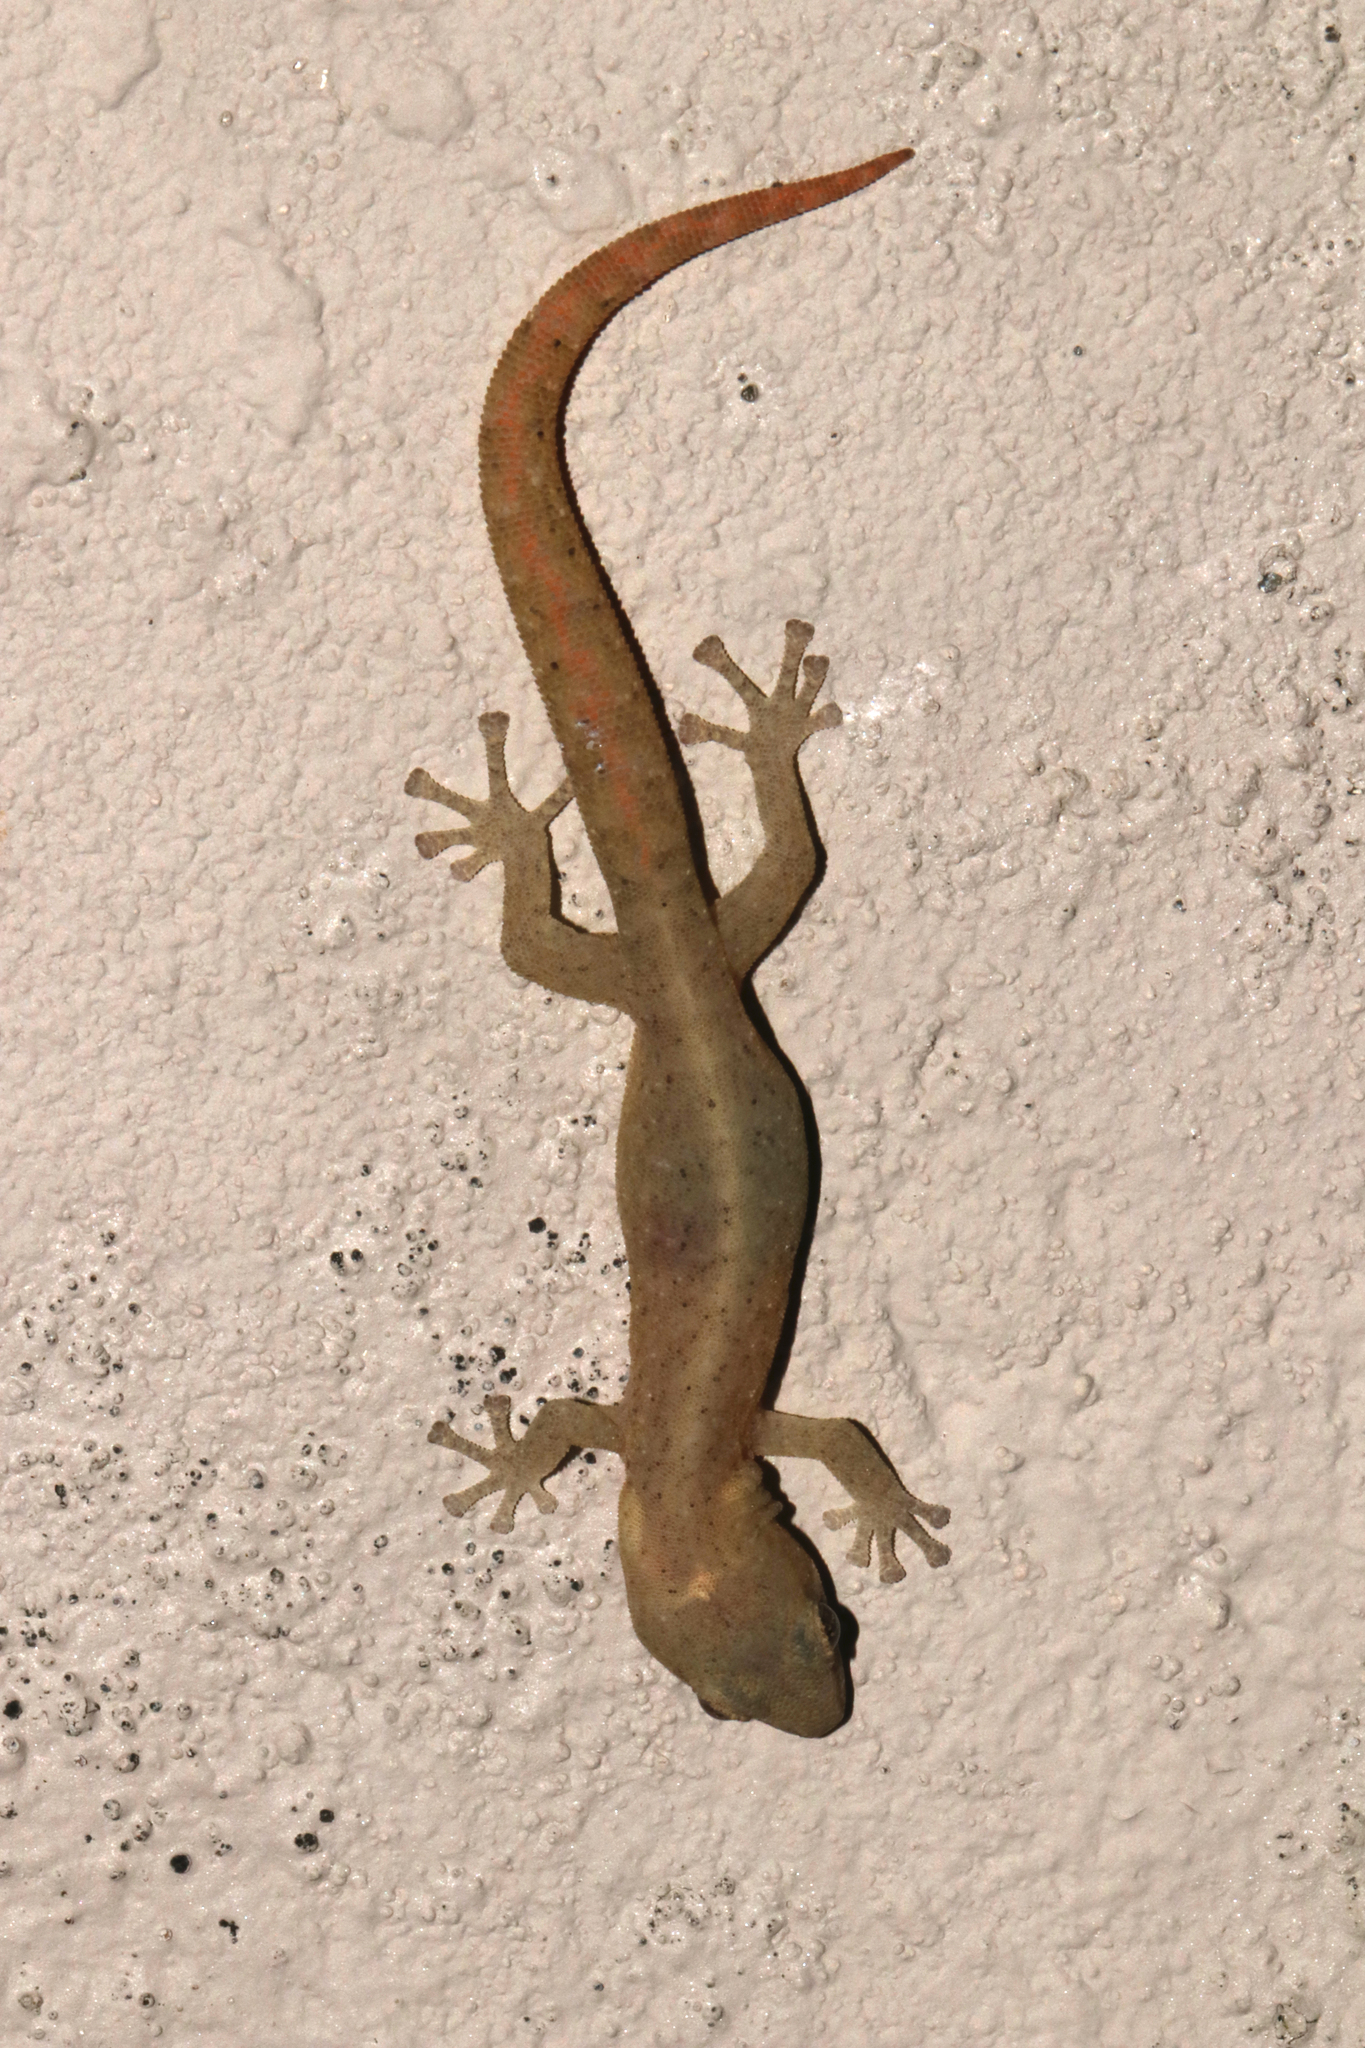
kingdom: Animalia
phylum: Chordata
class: Squamata
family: Gekkonidae
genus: Afrogecko
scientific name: Afrogecko porphyreus
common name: Marbled leaf-toed gecko
